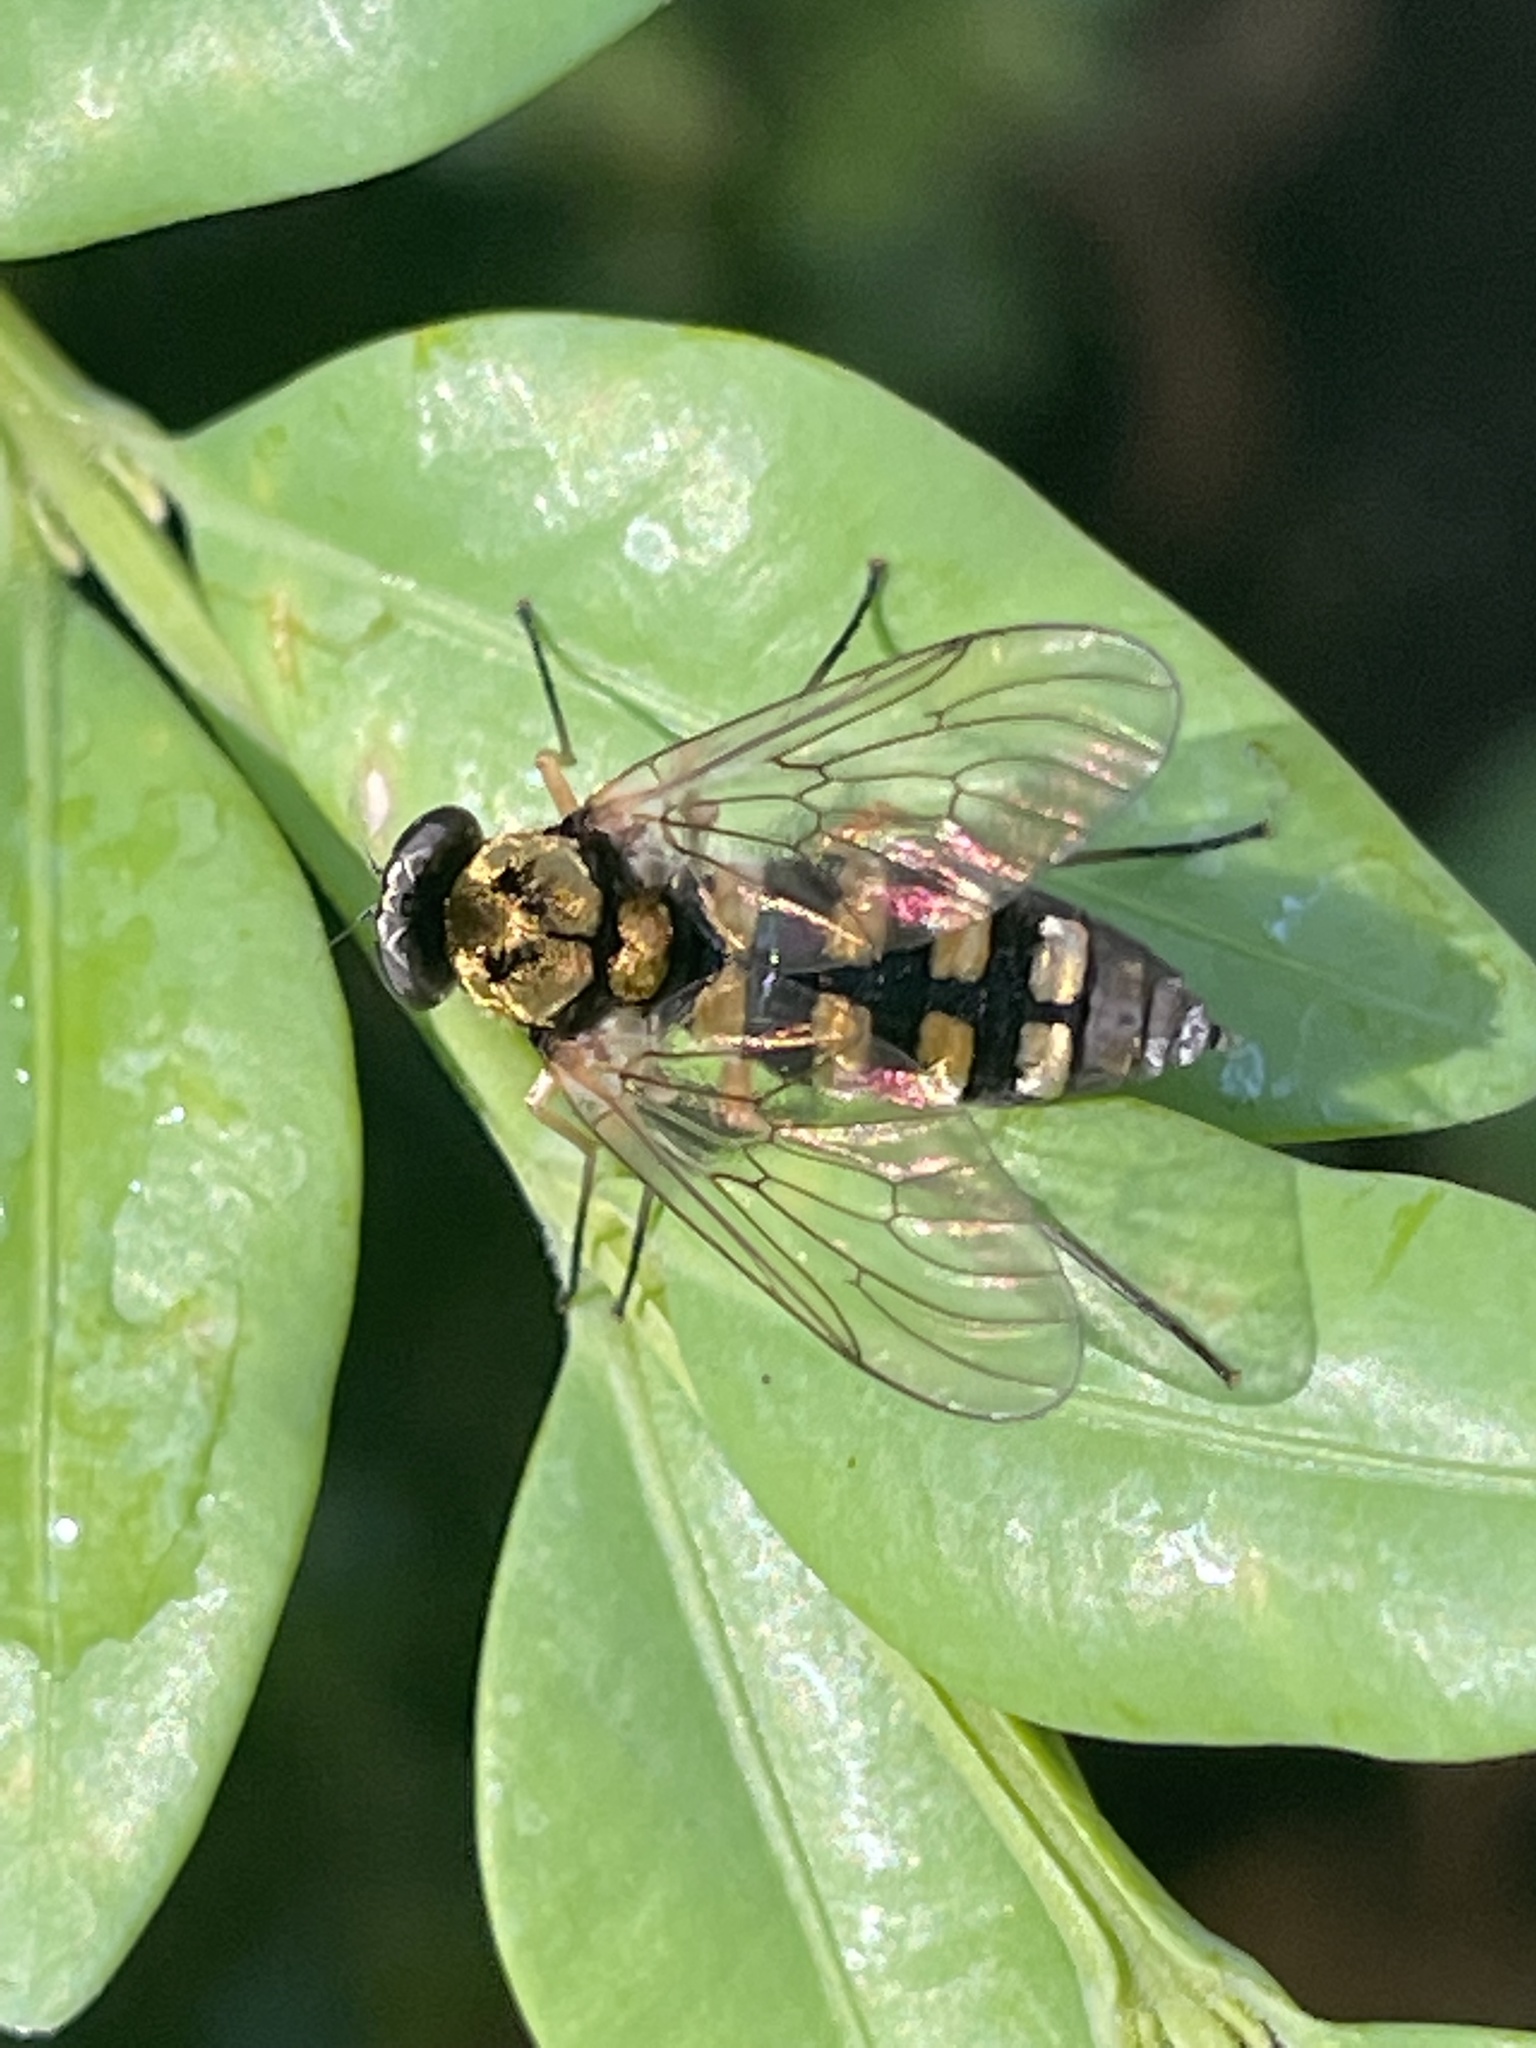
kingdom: Animalia
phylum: Arthropoda
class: Insecta
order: Diptera
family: Rhagionidae
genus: Chrysopilus
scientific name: Chrysopilus ornatus
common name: Ornate snipe fly
